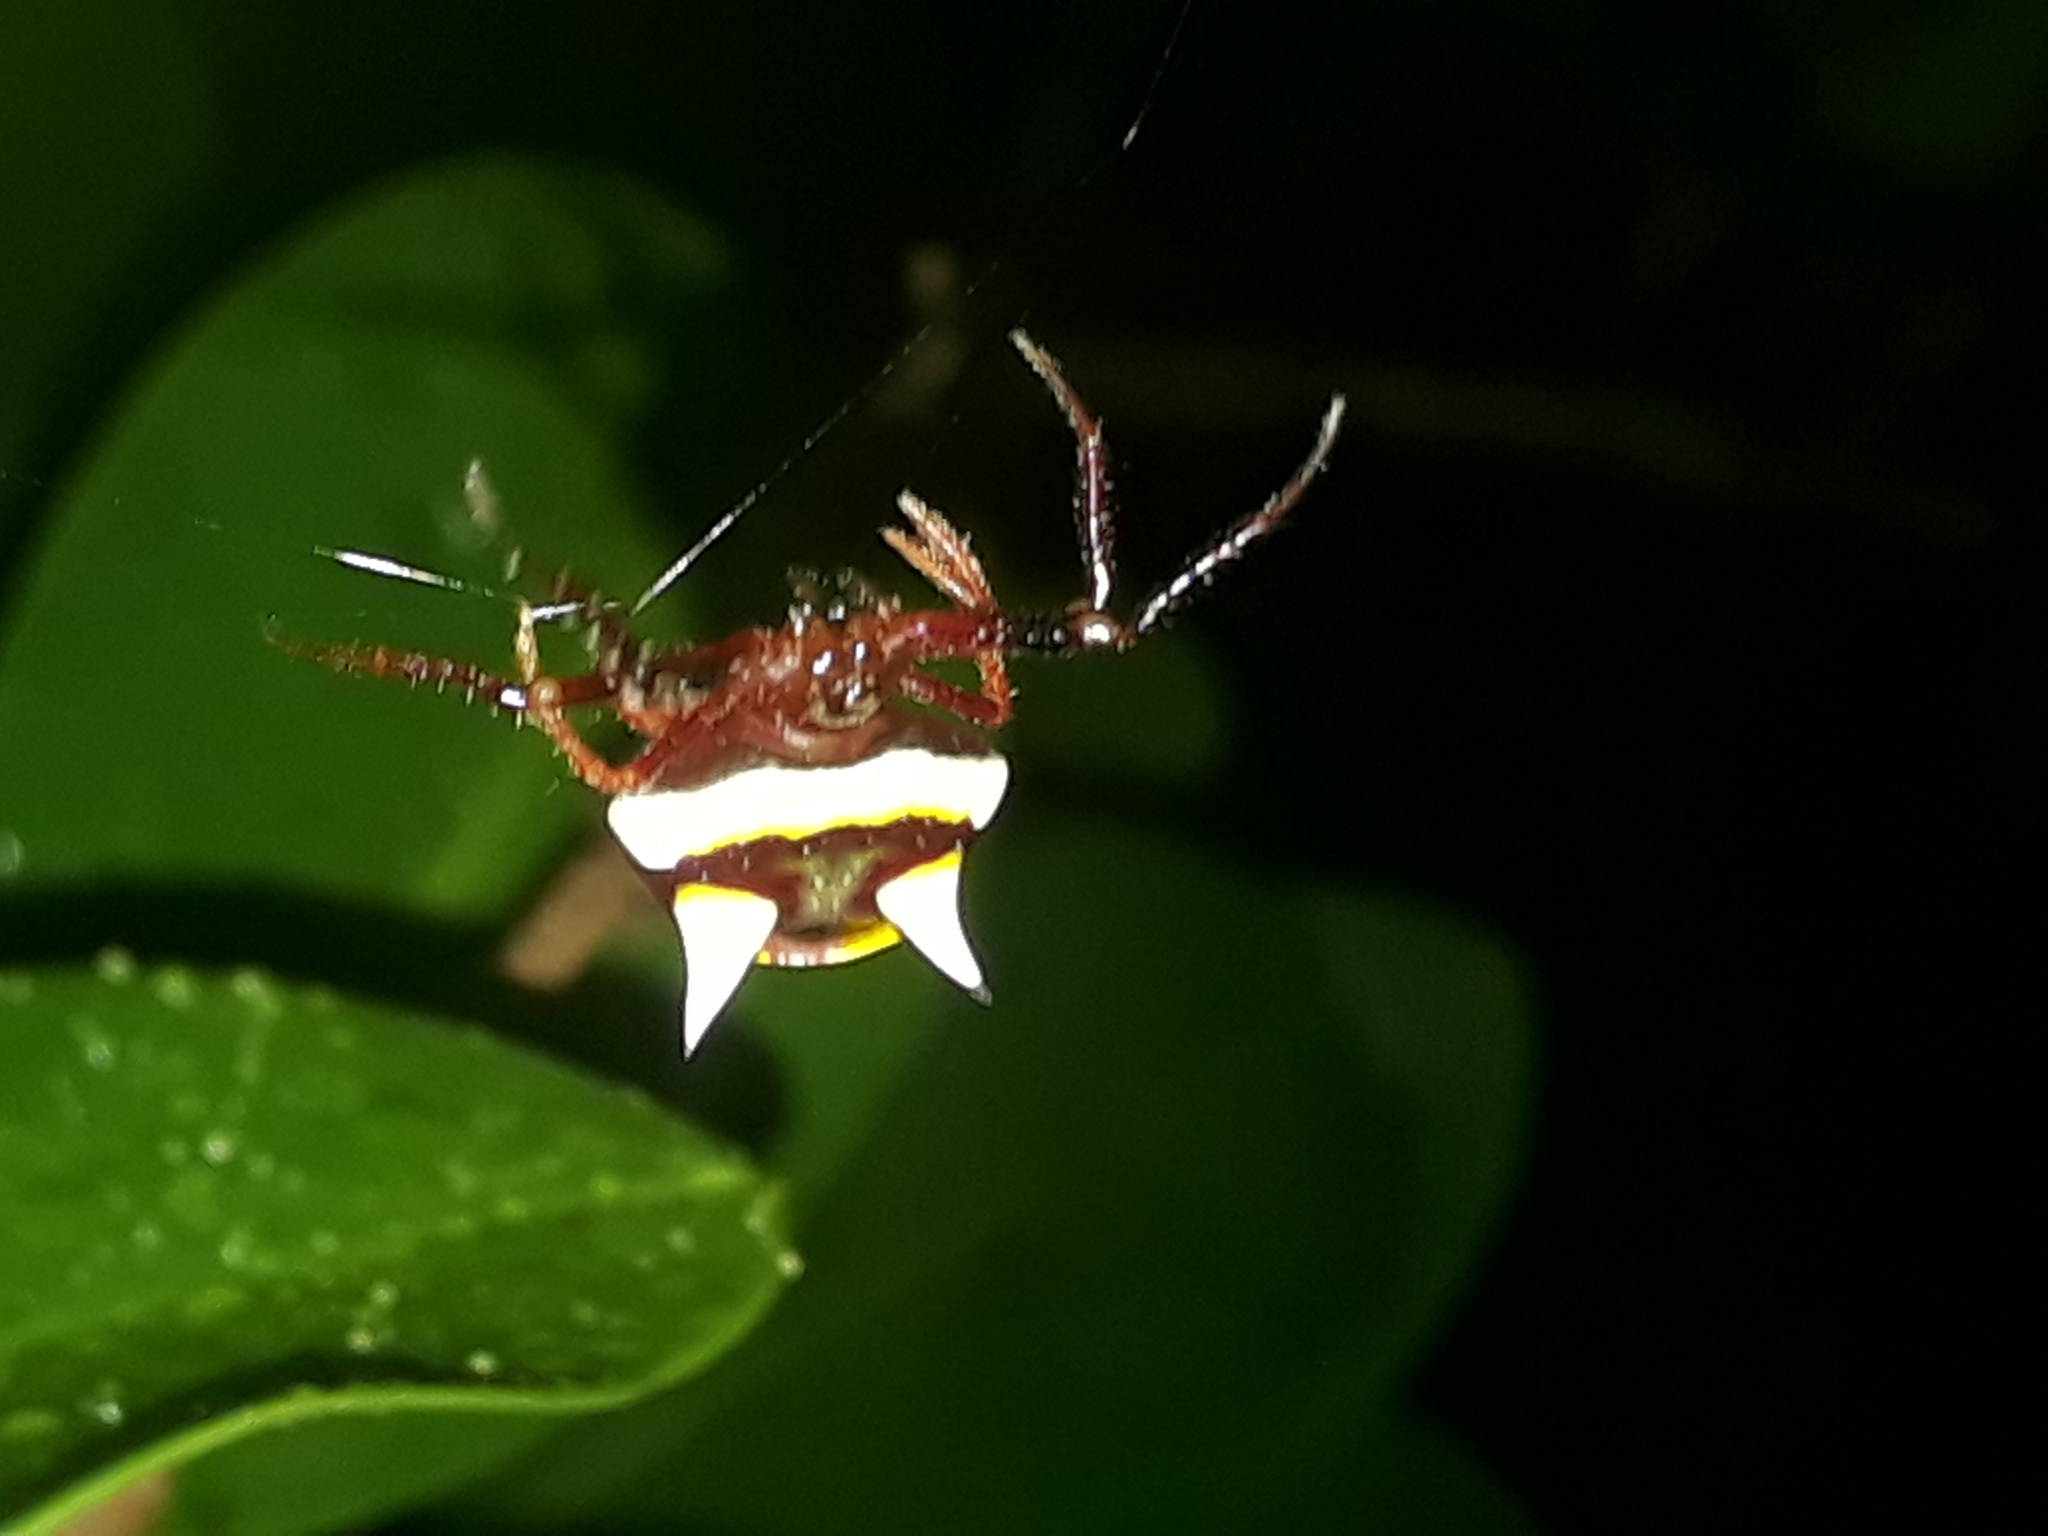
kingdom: Animalia
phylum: Arthropoda
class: Arachnida
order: Araneae
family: Araneidae
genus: Poecilopachys
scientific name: Poecilopachys australasia
